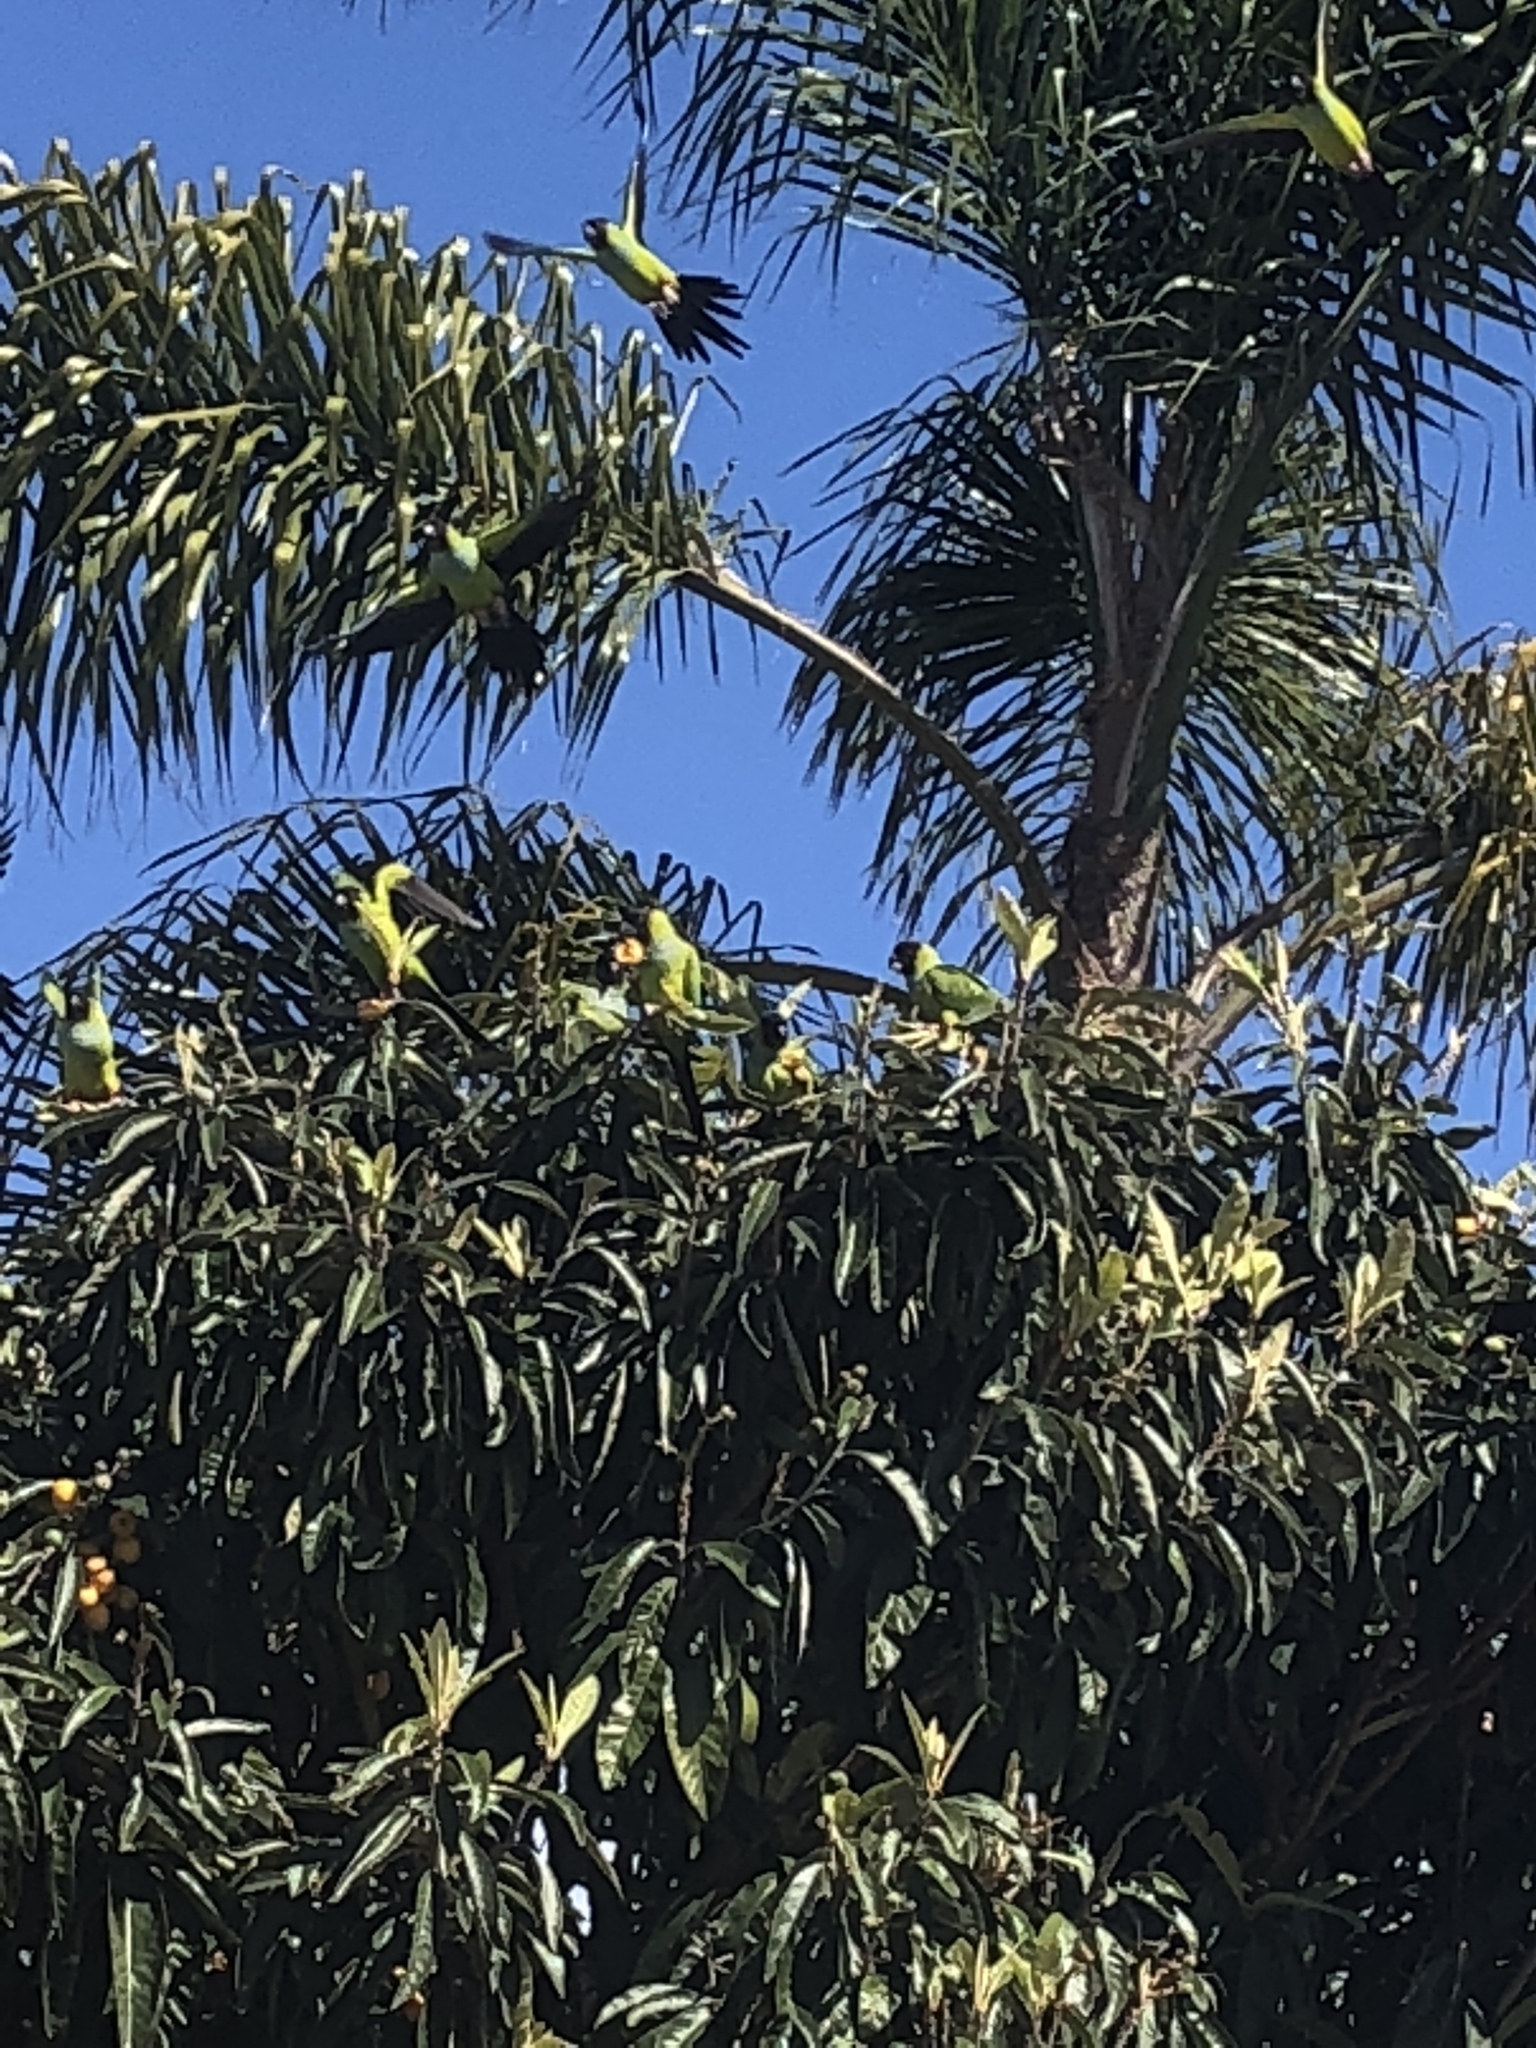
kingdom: Animalia
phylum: Chordata
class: Aves
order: Psittaciformes
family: Psittacidae
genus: Nandayus
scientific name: Nandayus nenday
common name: Nanday parakeet
